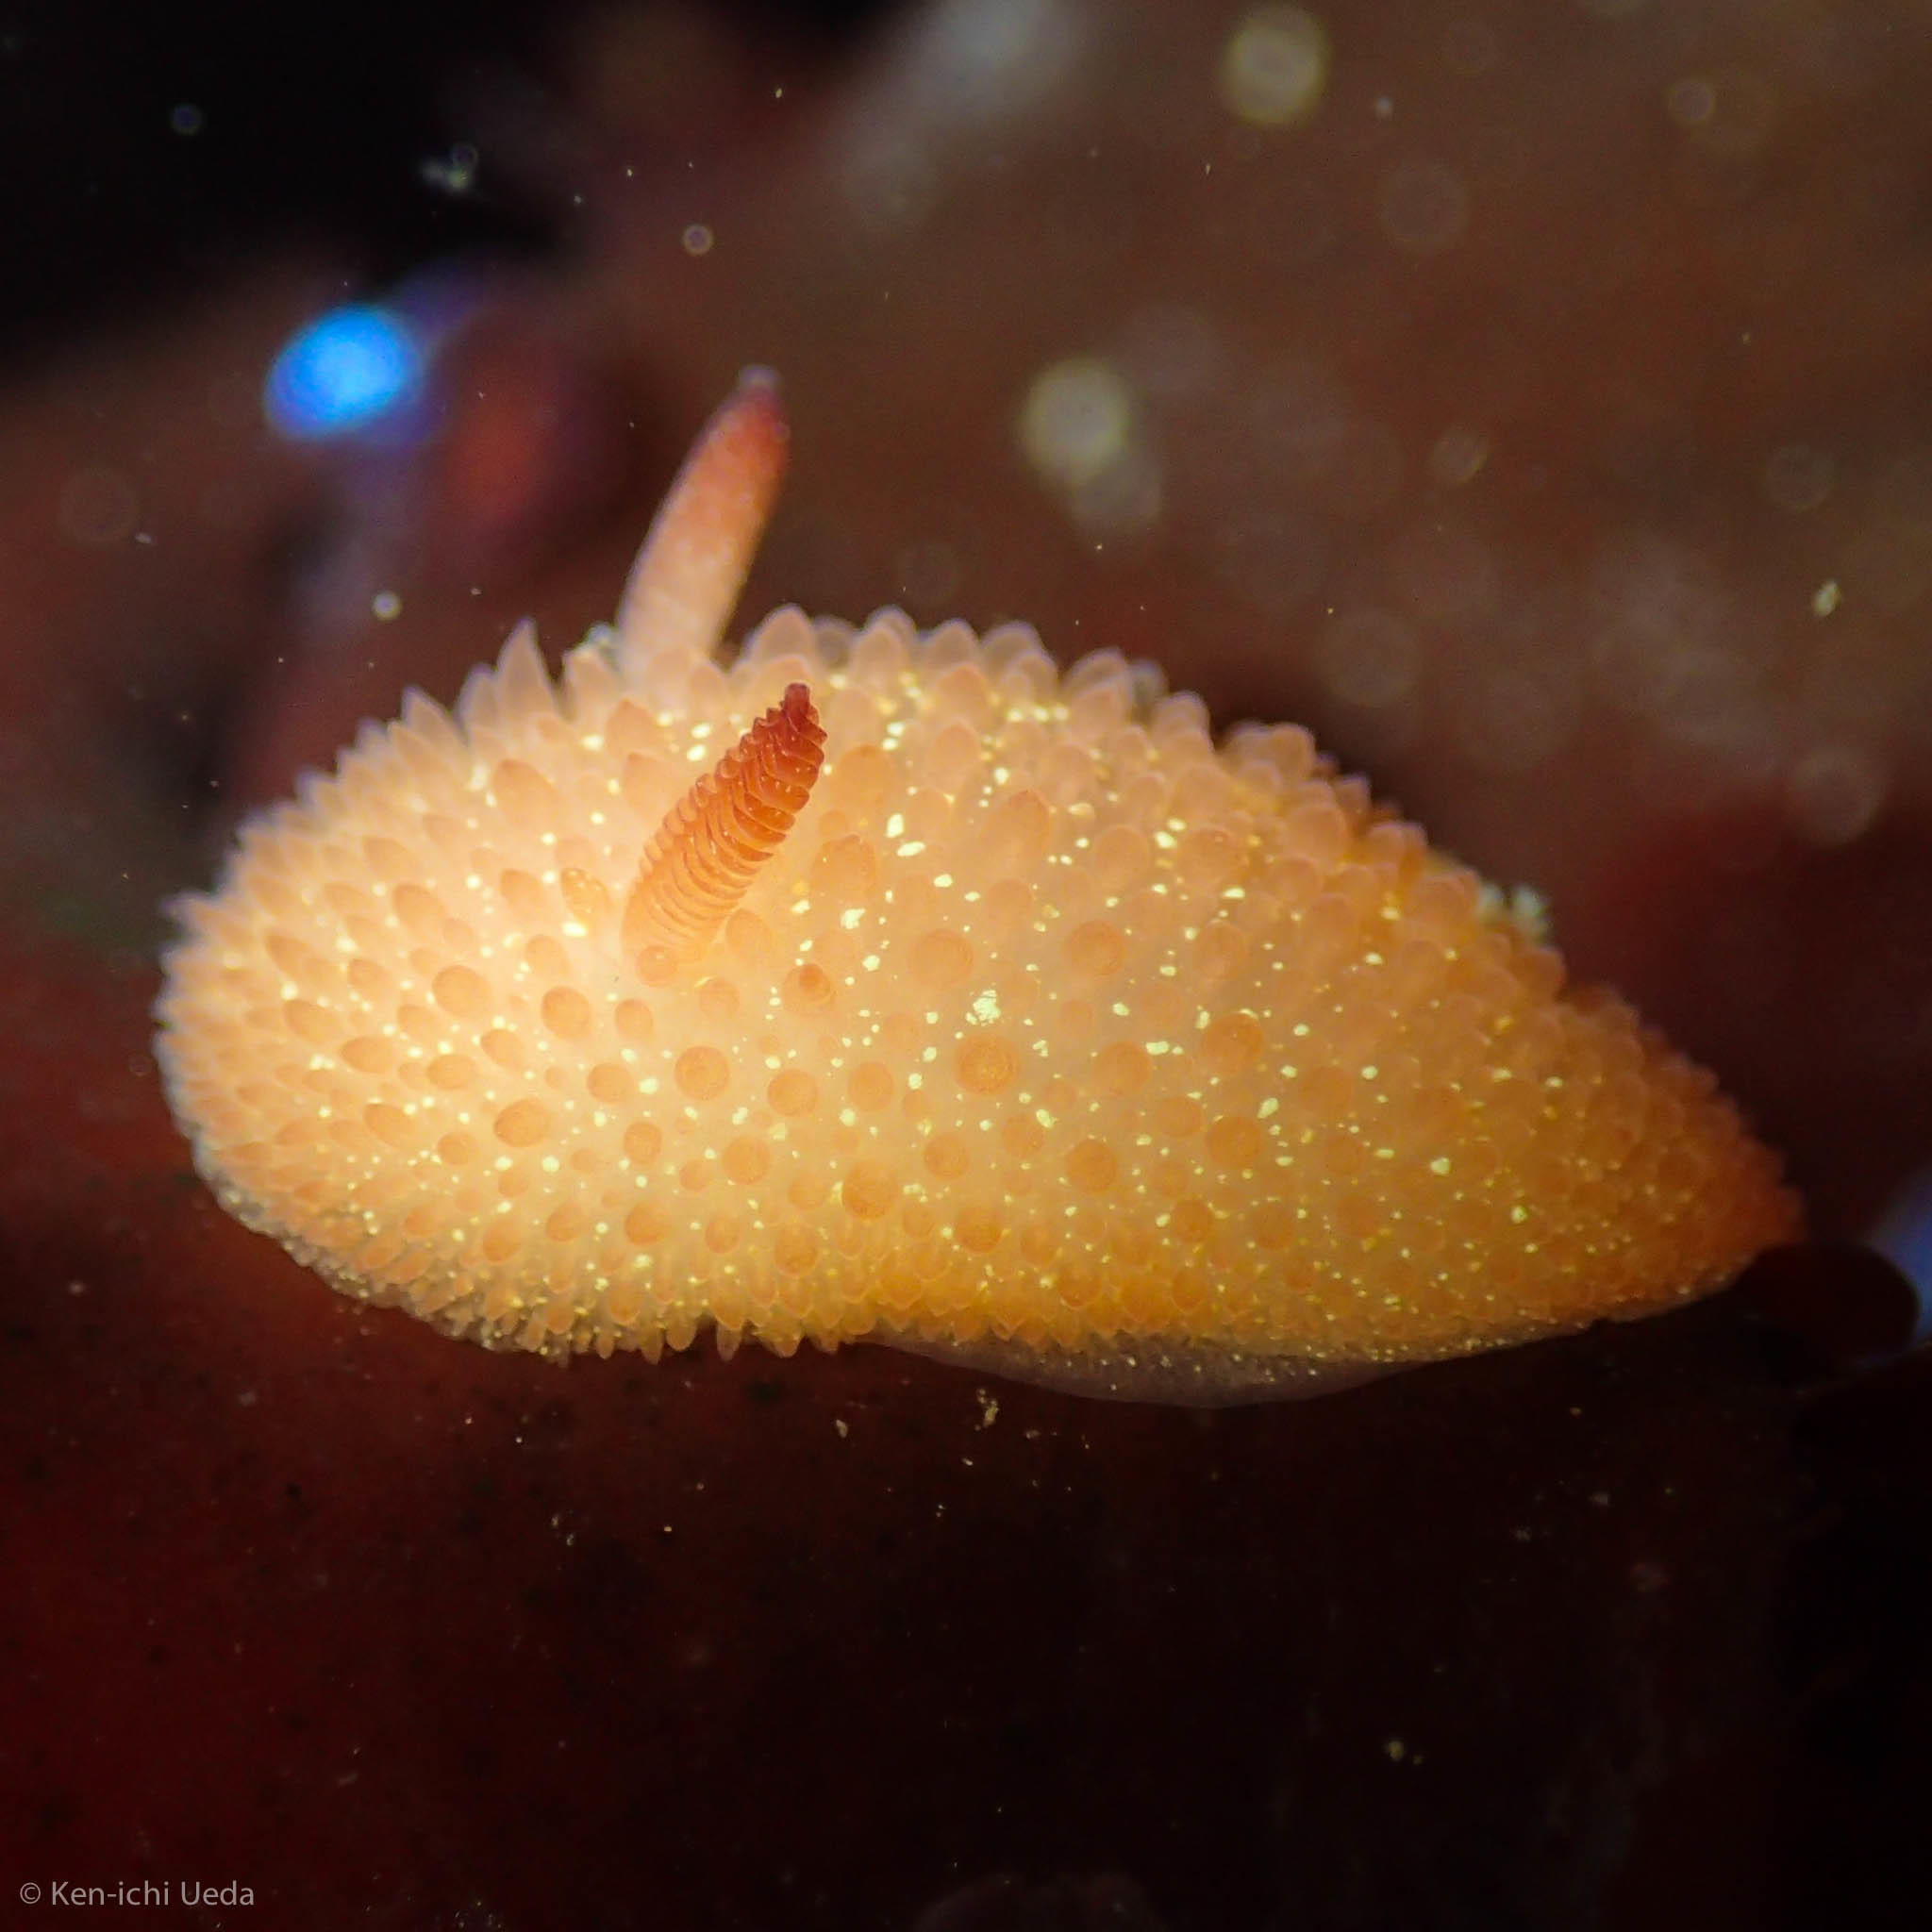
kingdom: Animalia
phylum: Mollusca
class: Gastropoda
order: Nudibranchia
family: Onchidorididae
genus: Acanthodoris
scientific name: Acanthodoris lutea
